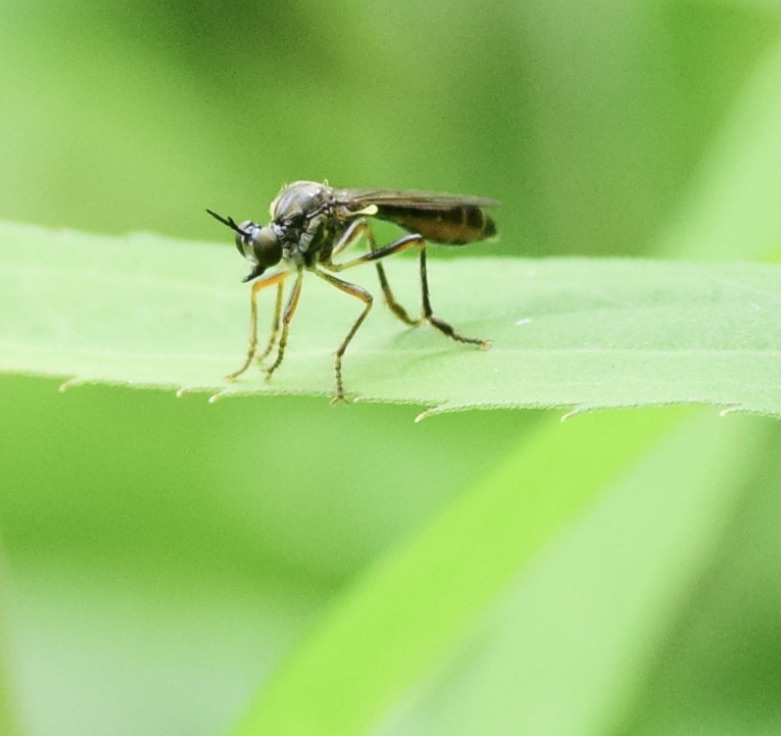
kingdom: Animalia
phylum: Arthropoda
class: Insecta
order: Diptera
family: Asilidae
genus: Dioctria
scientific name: Dioctria hyalipennis
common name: Stripe-legged robberfly
